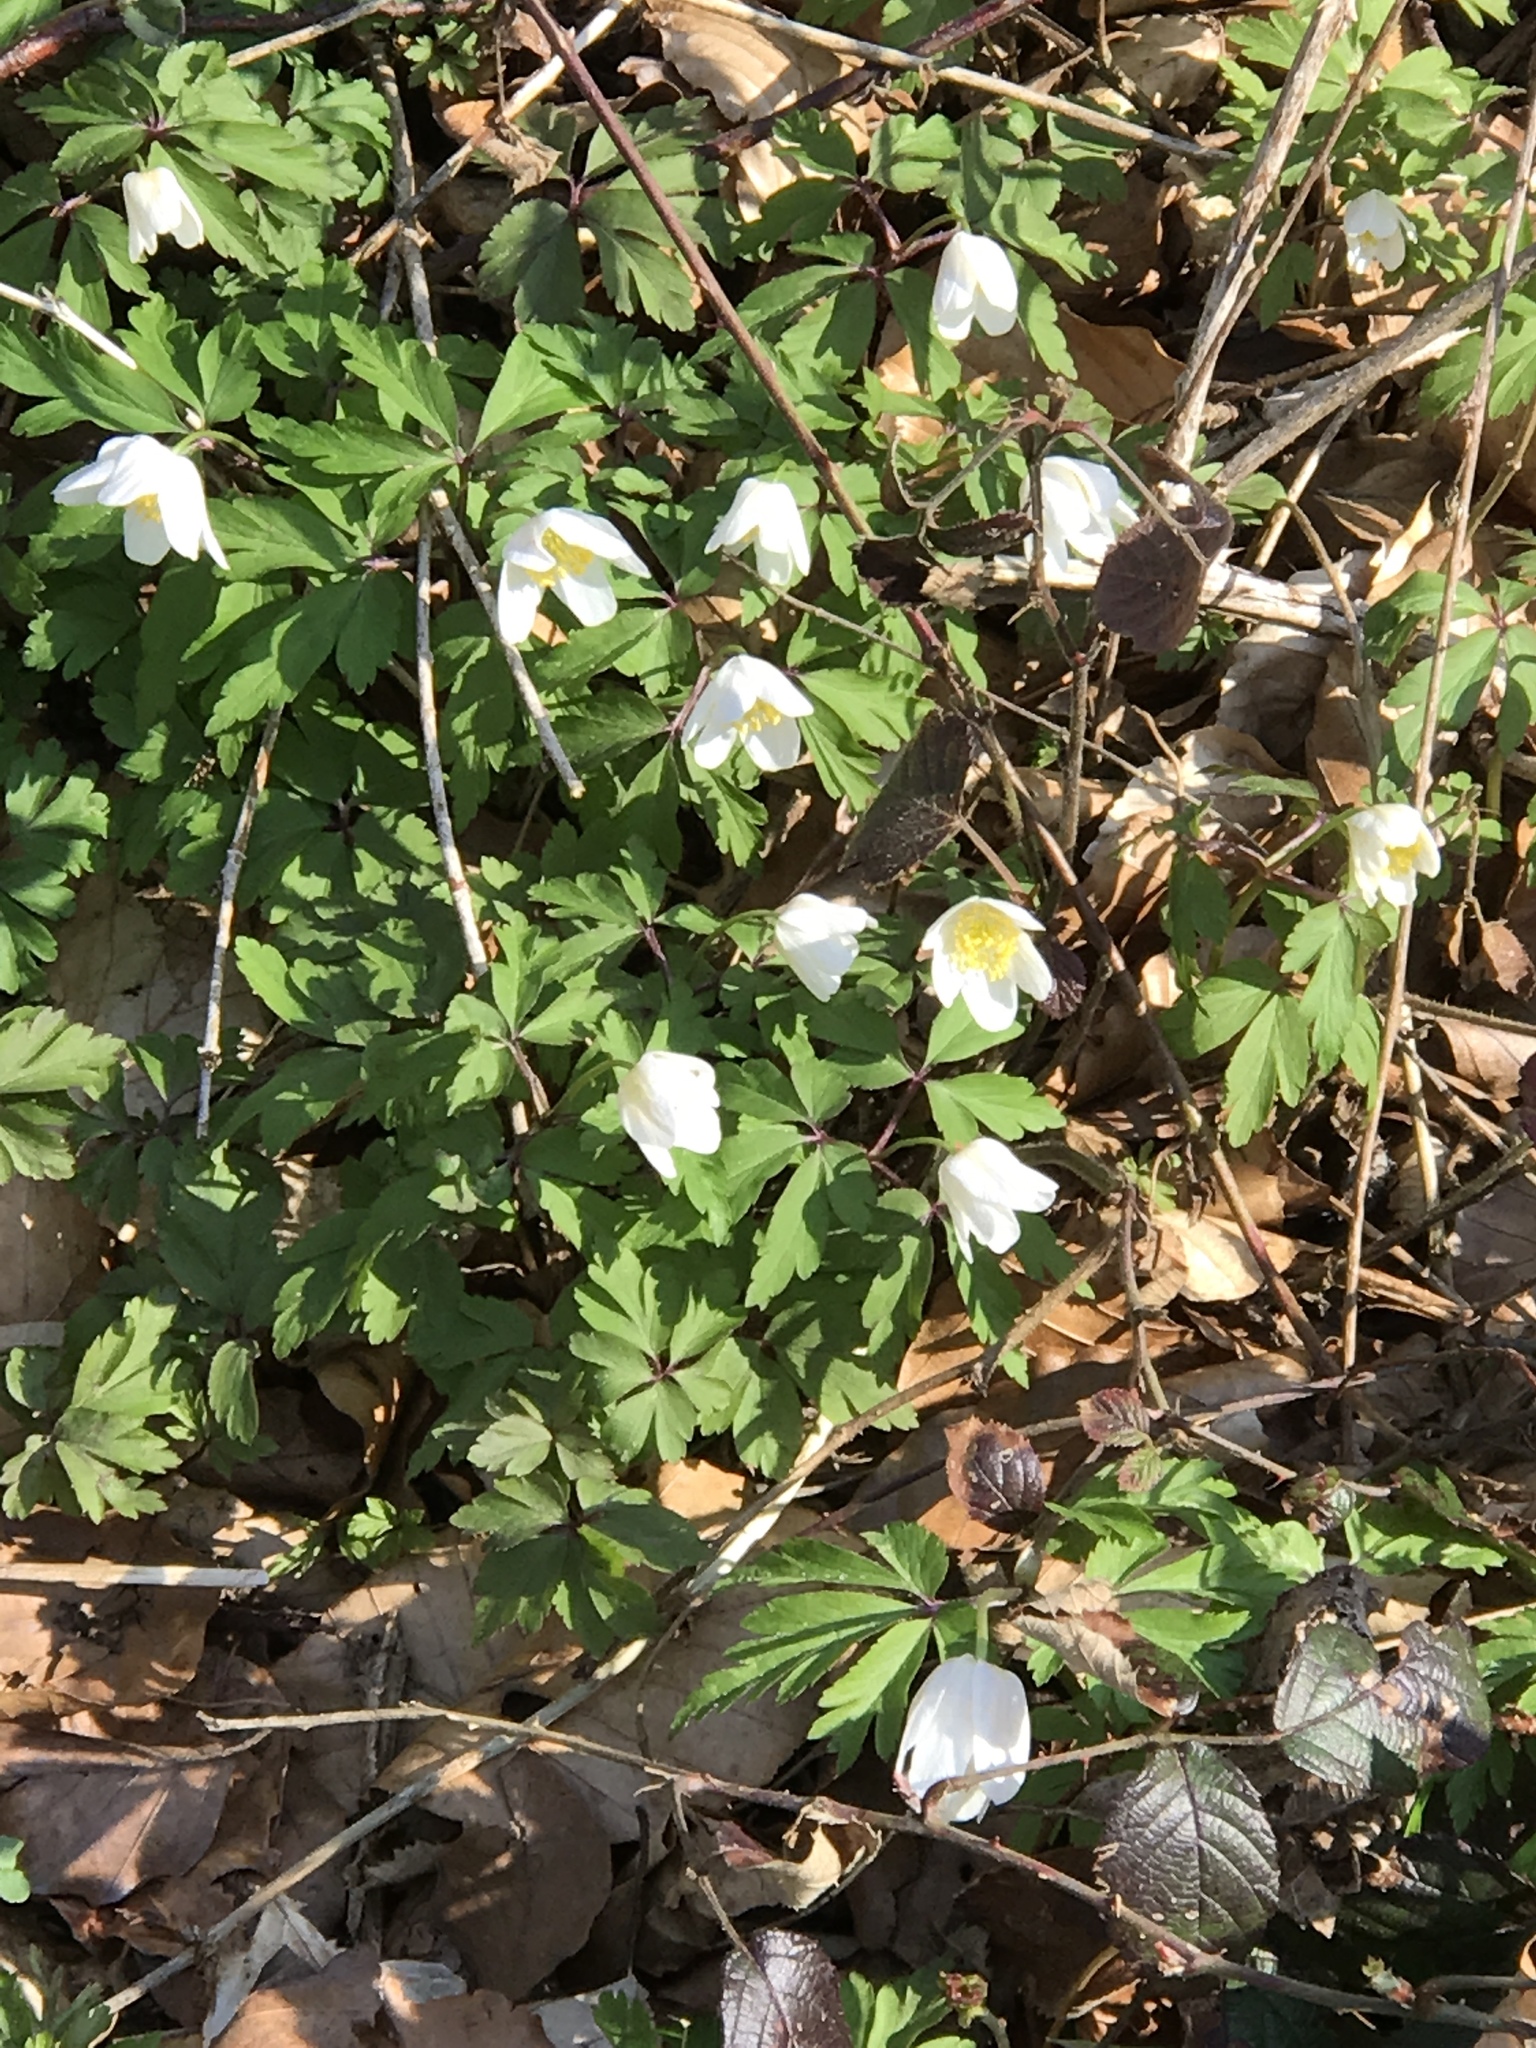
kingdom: Animalia
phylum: Arthropoda
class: Insecta
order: Diptera
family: Bombyliidae
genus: Bombylius
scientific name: Bombylius major
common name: Bee fly
